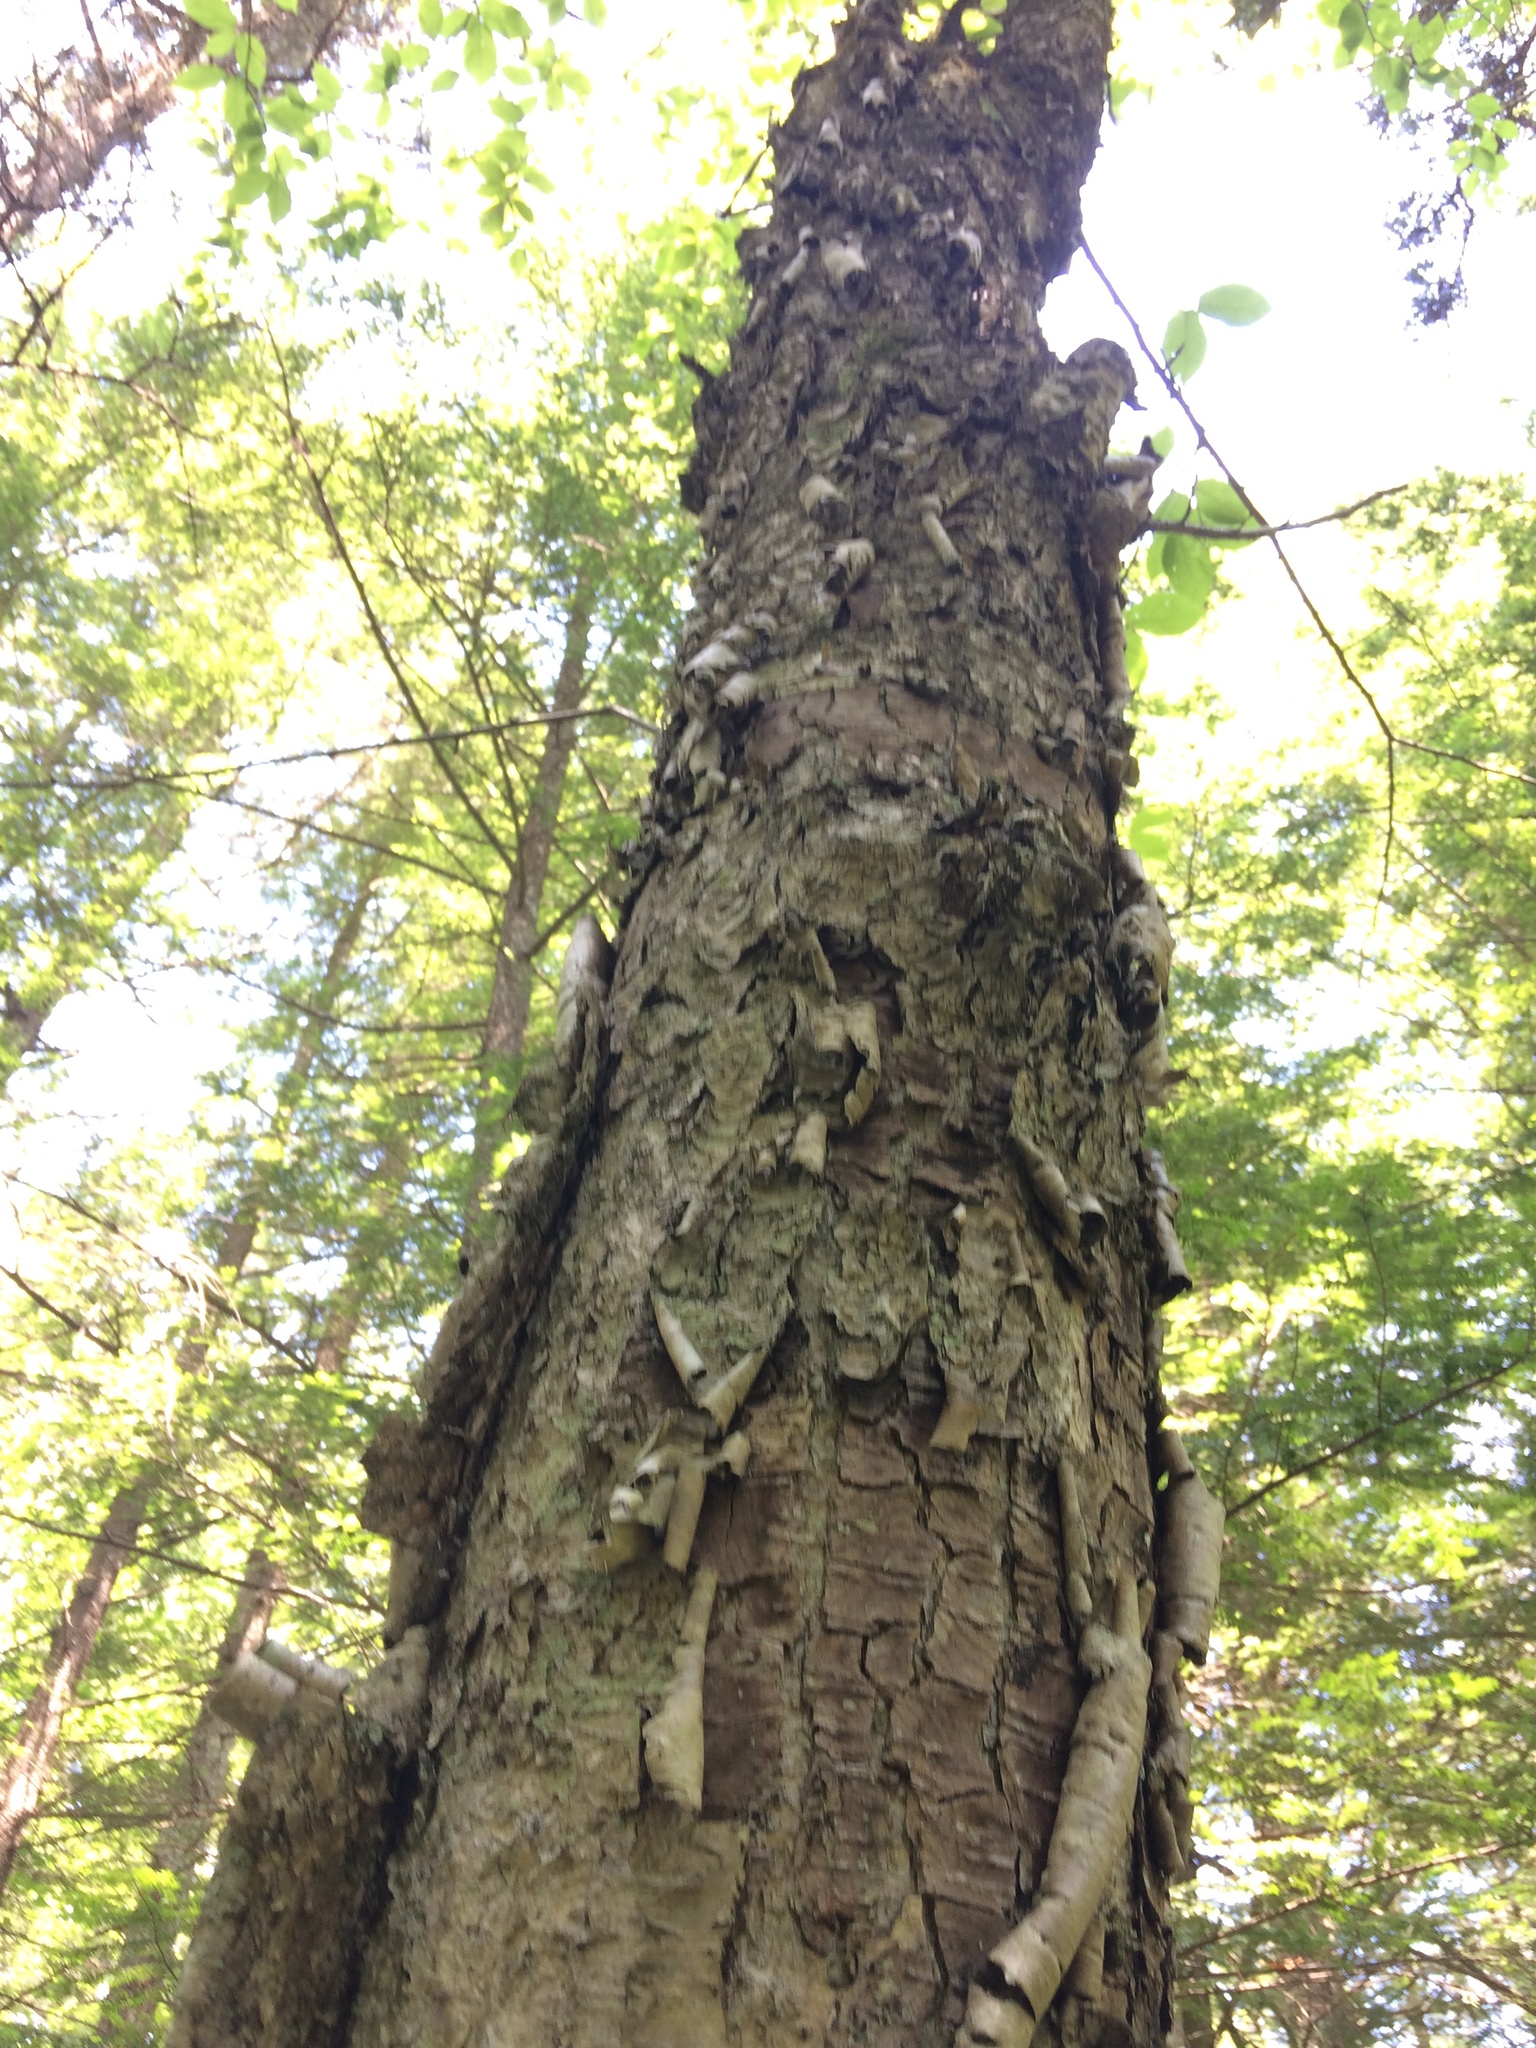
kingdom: Plantae
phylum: Tracheophyta
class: Magnoliopsida
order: Fagales
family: Betulaceae
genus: Betula
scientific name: Betula alleghaniensis
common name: Yellow birch
